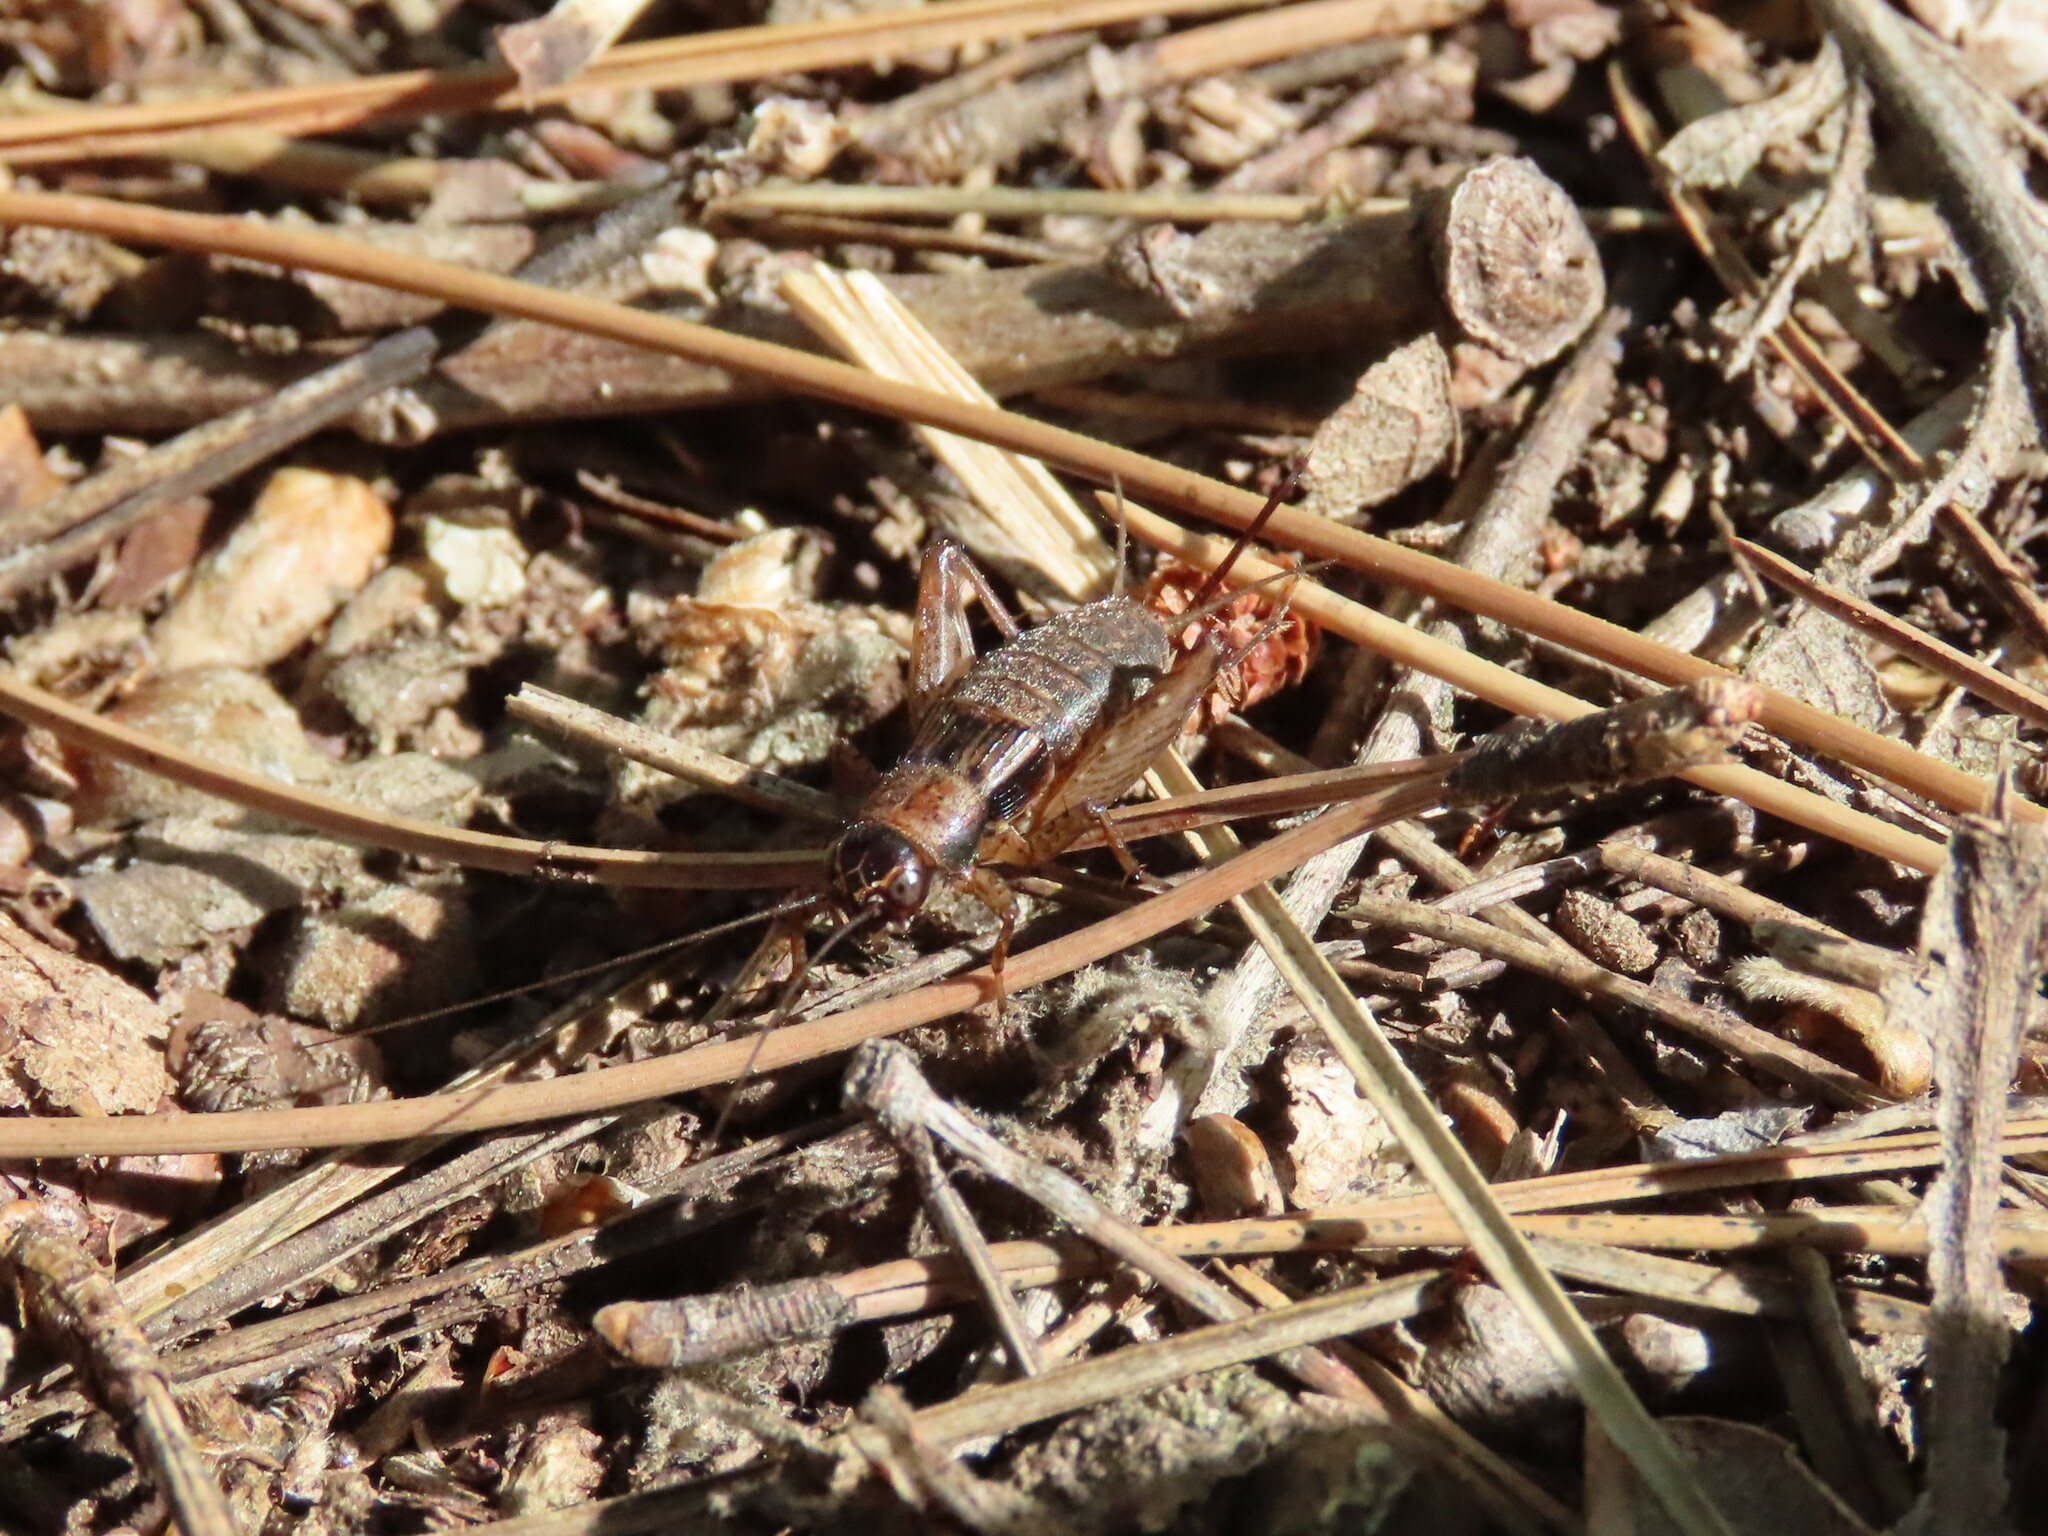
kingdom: Animalia
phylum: Arthropoda
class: Insecta
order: Orthoptera
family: Trigonidiidae
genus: Nemobius
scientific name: Nemobius sylvestris
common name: Wood-cricket
